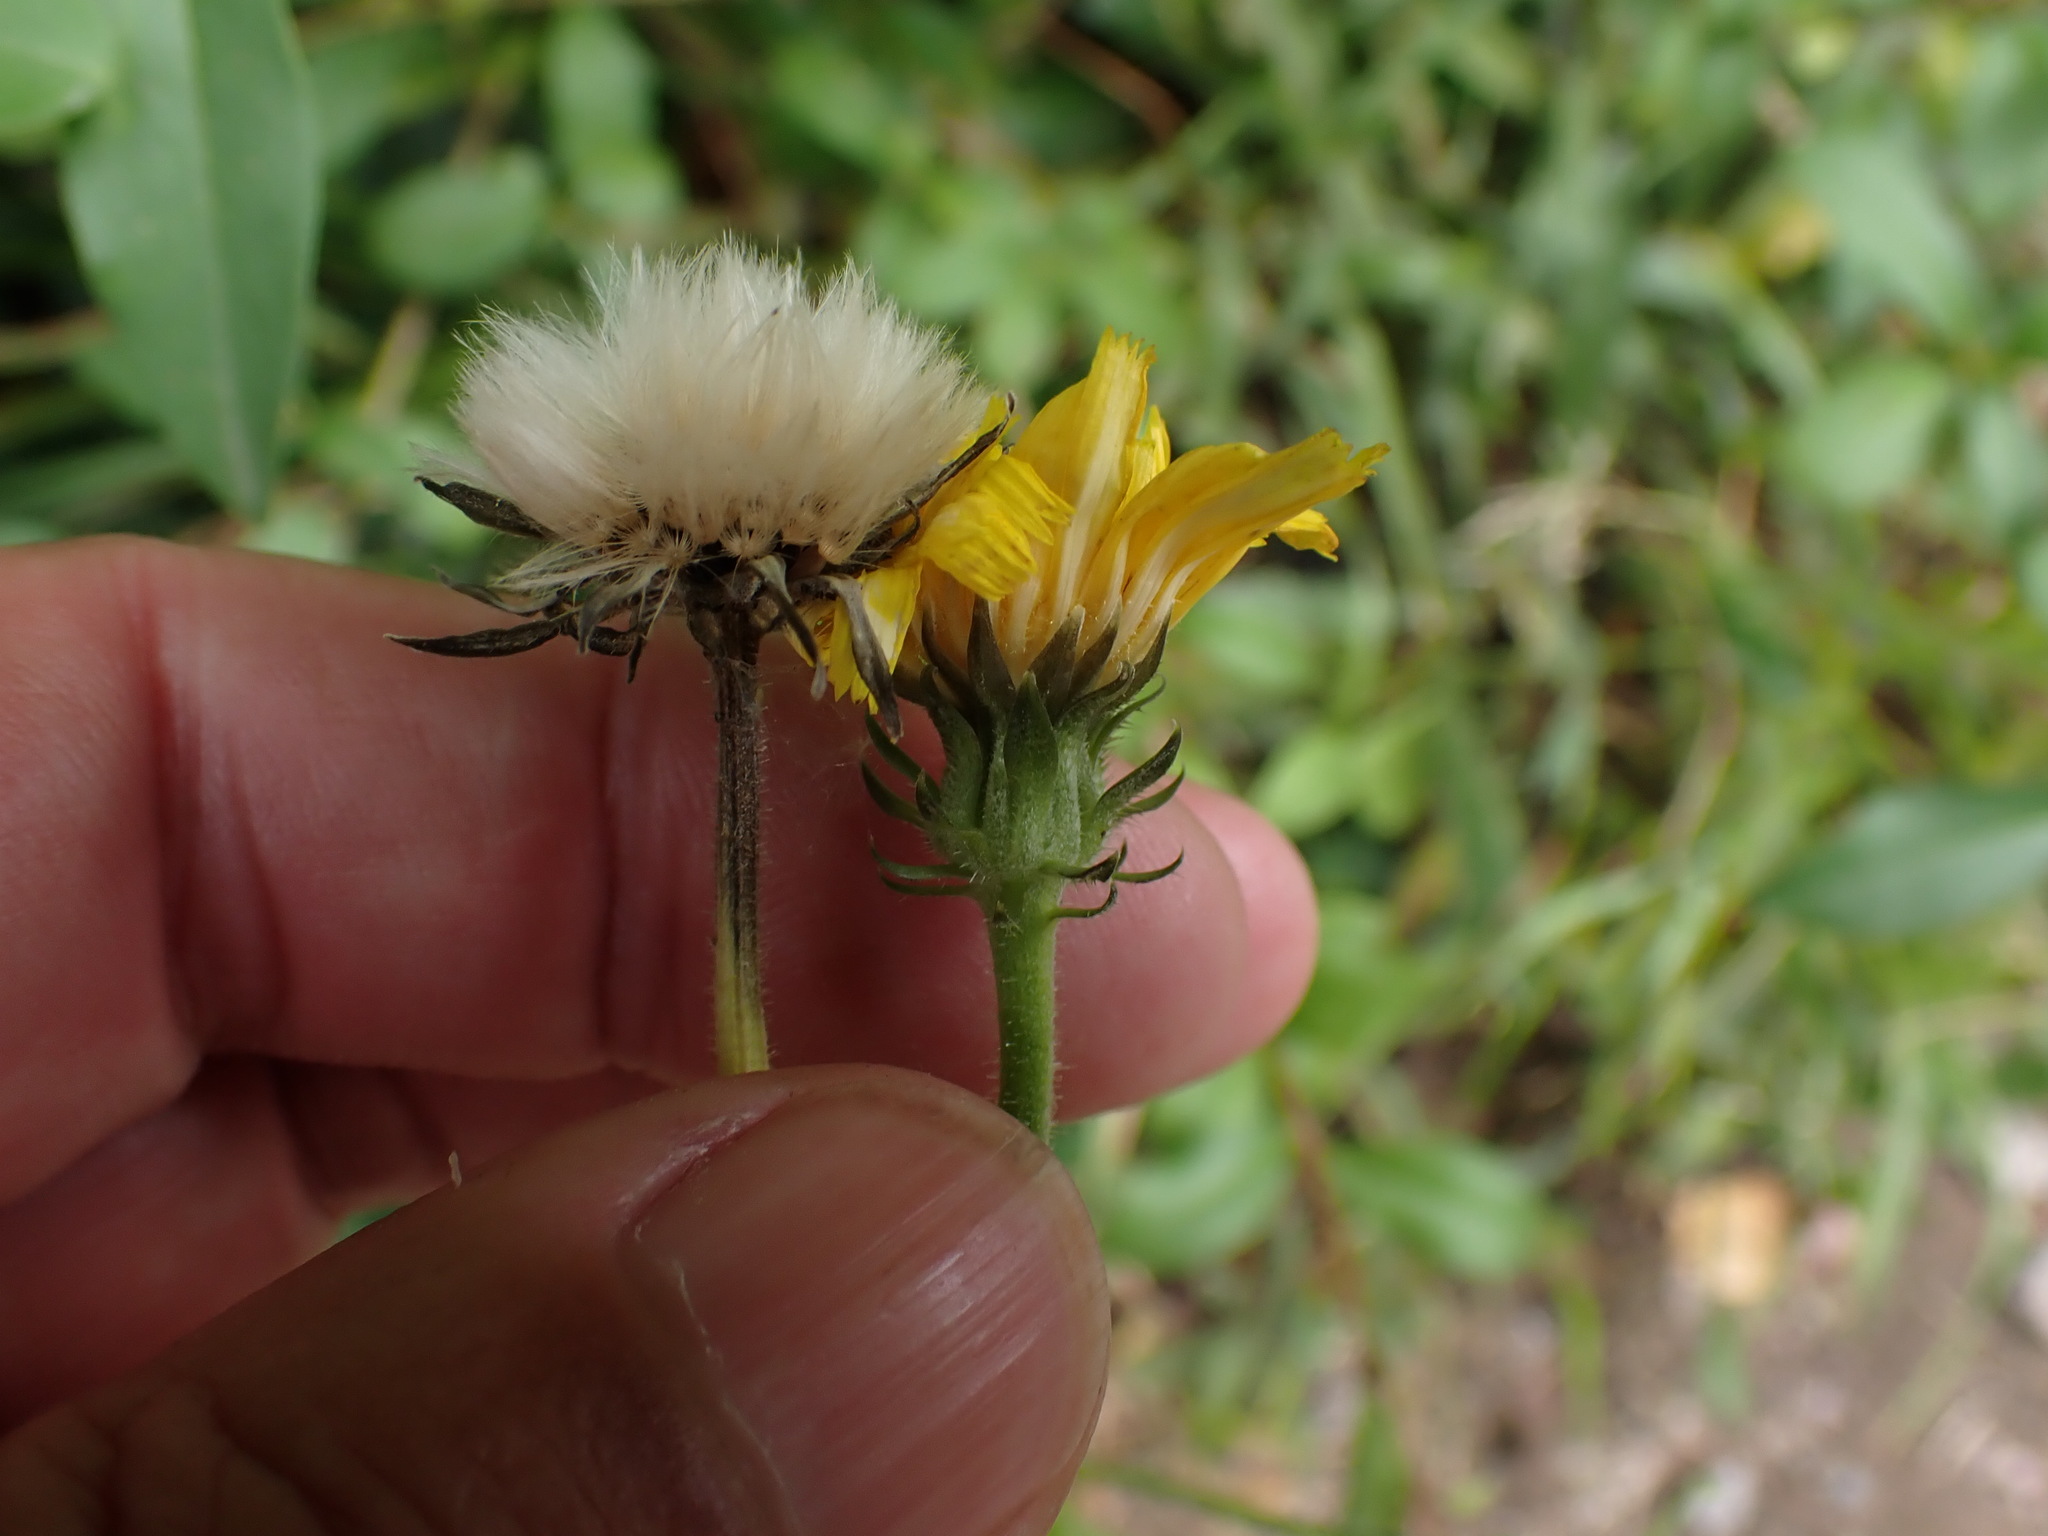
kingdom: Plantae
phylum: Tracheophyta
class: Magnoliopsida
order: Asterales
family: Asteraceae
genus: Picris
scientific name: Picris hieracioides
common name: Hawkweed oxtongue
